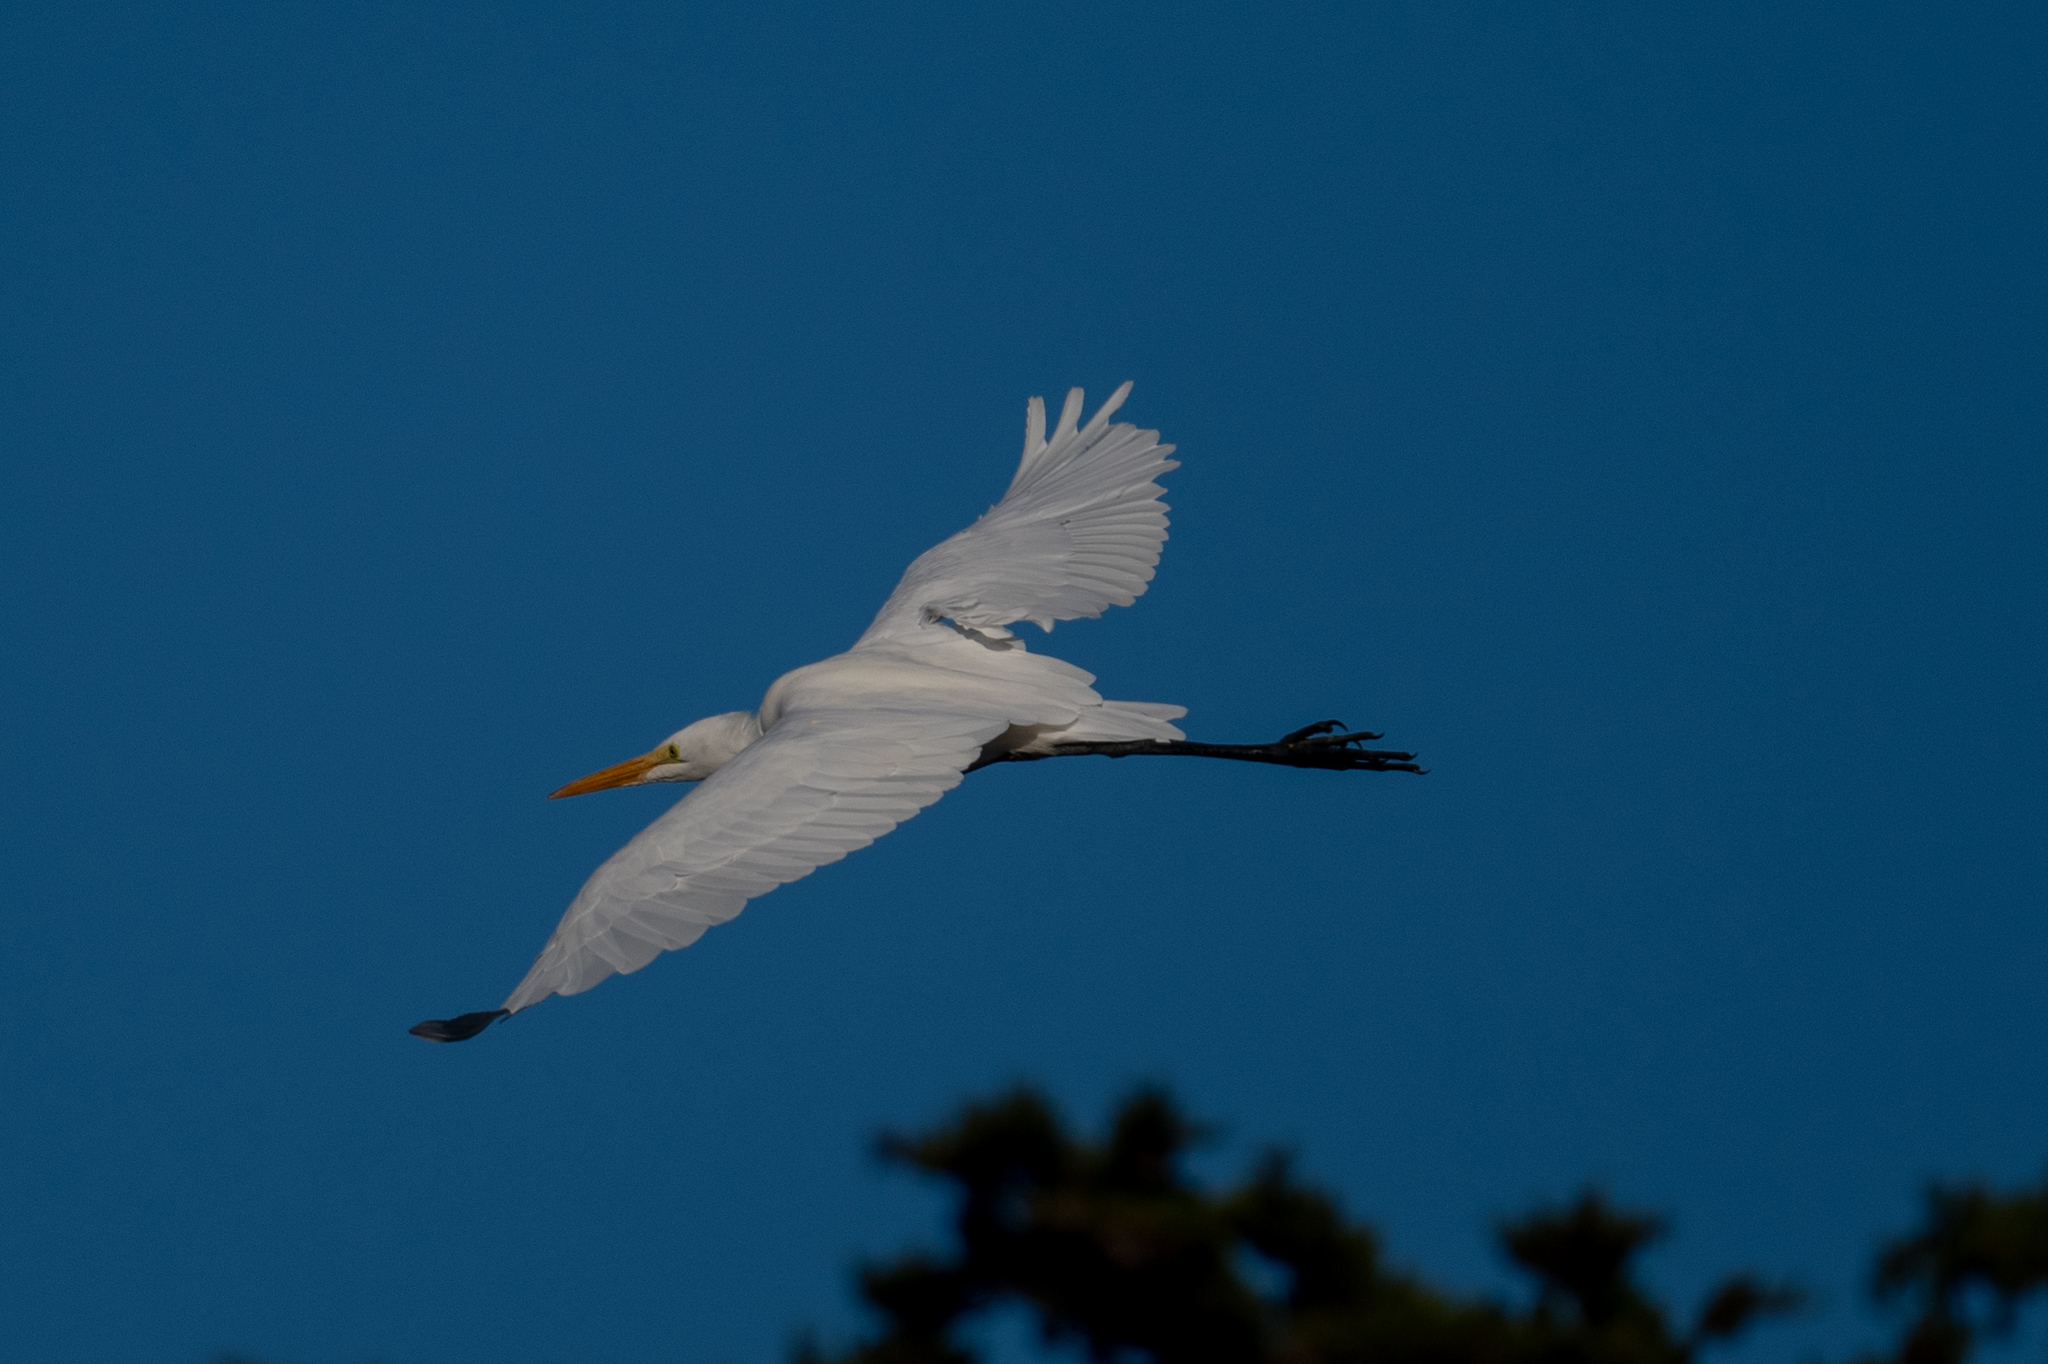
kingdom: Animalia
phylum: Chordata
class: Aves
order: Pelecaniformes
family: Ardeidae
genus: Ardea
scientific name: Ardea alba
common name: Great egret
